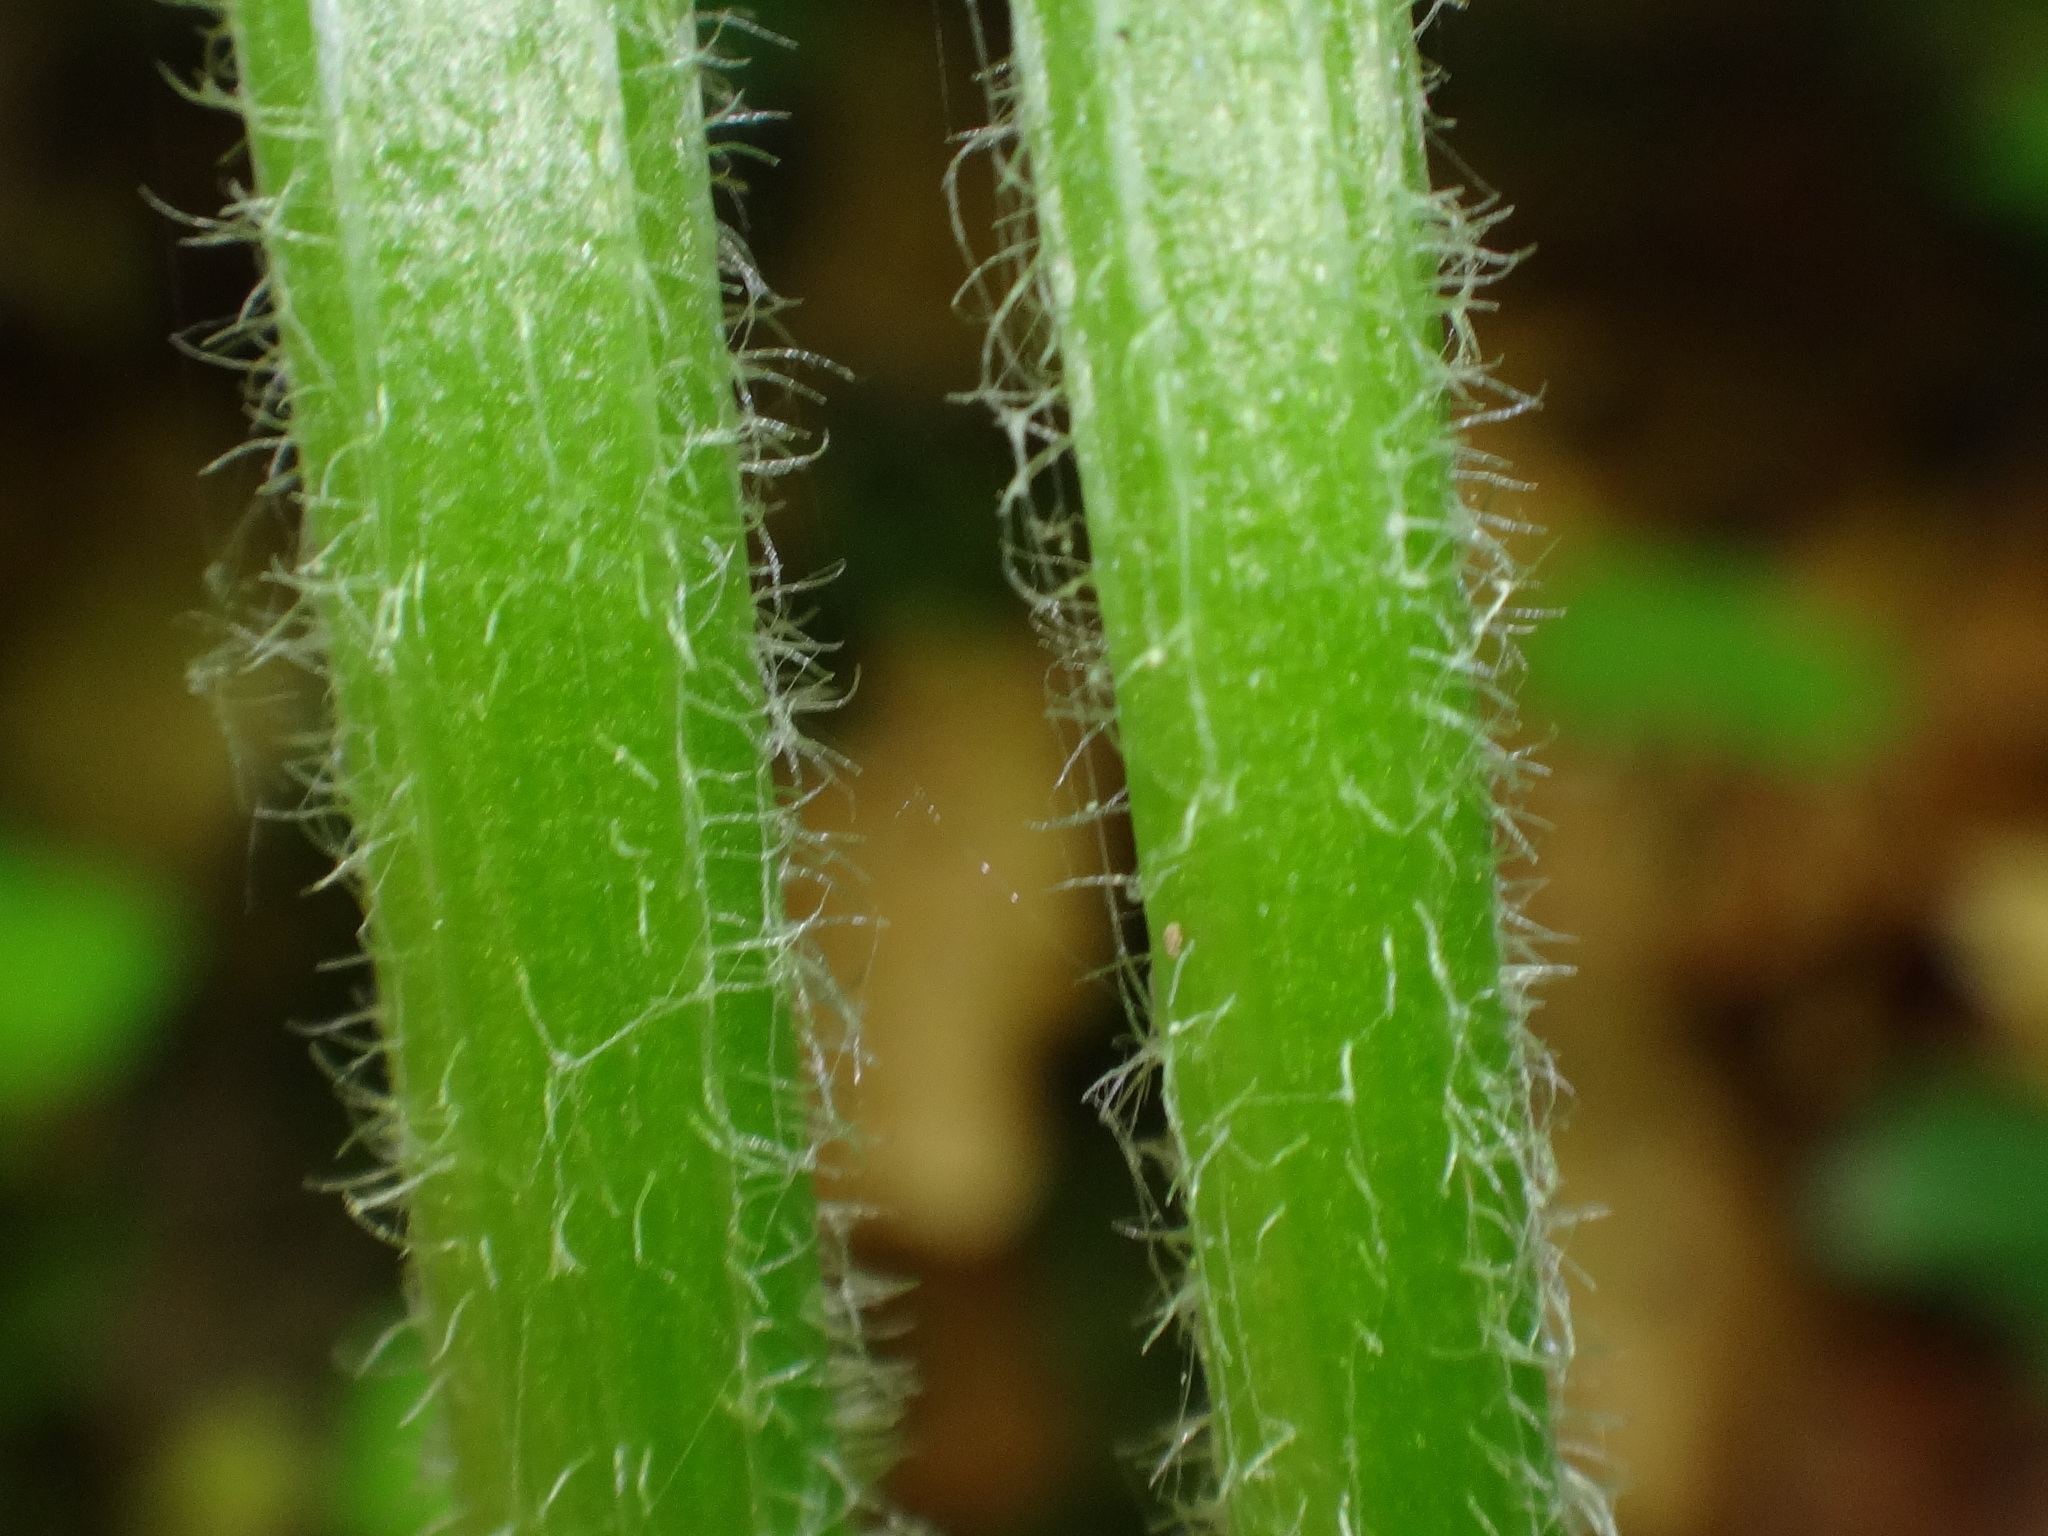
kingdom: Plantae
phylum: Tracheophyta
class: Magnoliopsida
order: Asterales
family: Asteraceae
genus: Tephroseris
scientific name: Tephroseris longifolia
